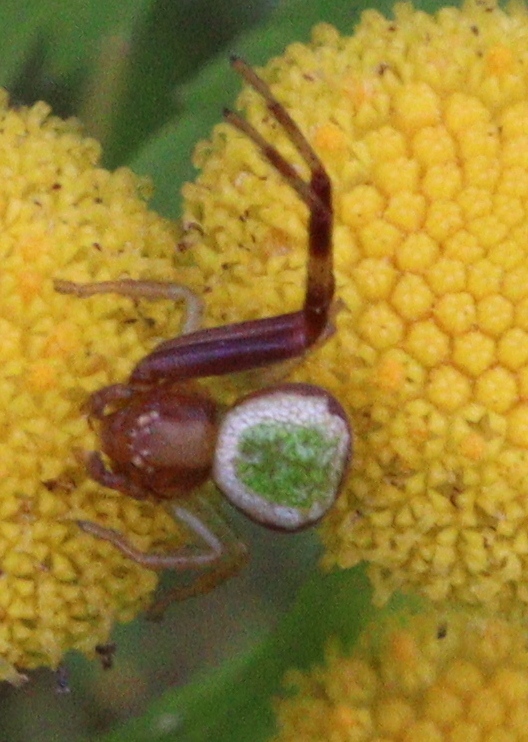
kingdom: Animalia
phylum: Arthropoda
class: Arachnida
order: Araneae
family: Thomisidae
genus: Ebrechtella
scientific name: Ebrechtella tricuspidata
